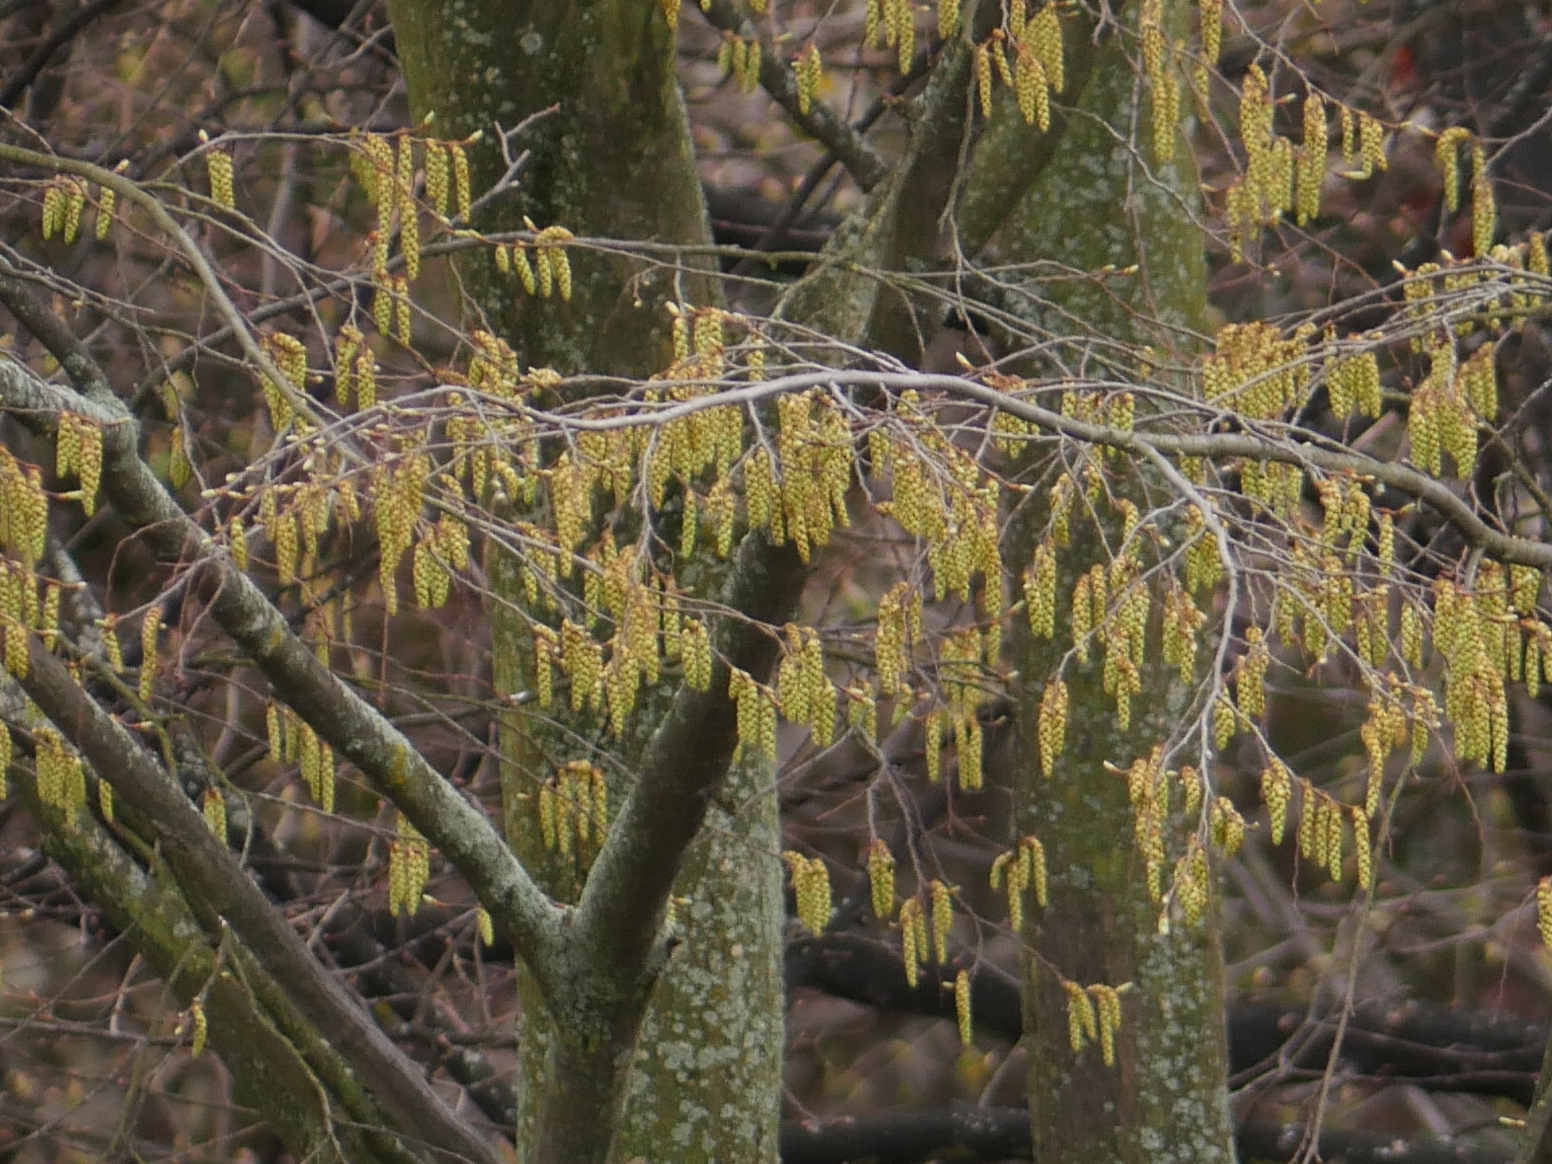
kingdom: Plantae
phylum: Tracheophyta
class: Magnoliopsida
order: Fagales
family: Betulaceae
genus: Carpinus
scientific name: Carpinus betulus
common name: Hornbeam
